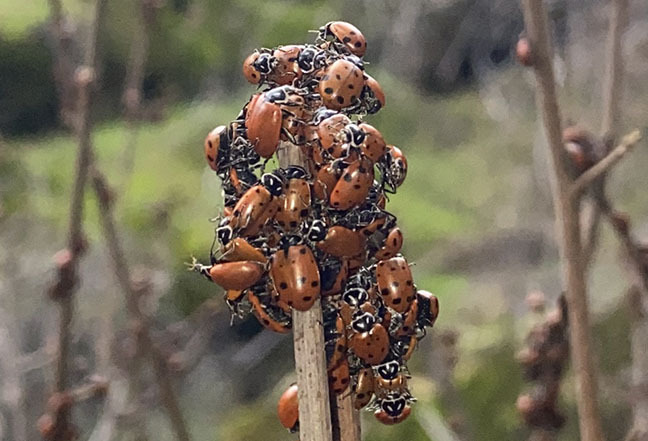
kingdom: Animalia
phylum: Arthropoda
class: Insecta
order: Coleoptera
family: Coccinellidae
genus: Hippodamia
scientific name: Hippodamia convergens
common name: Convergent lady beetle
